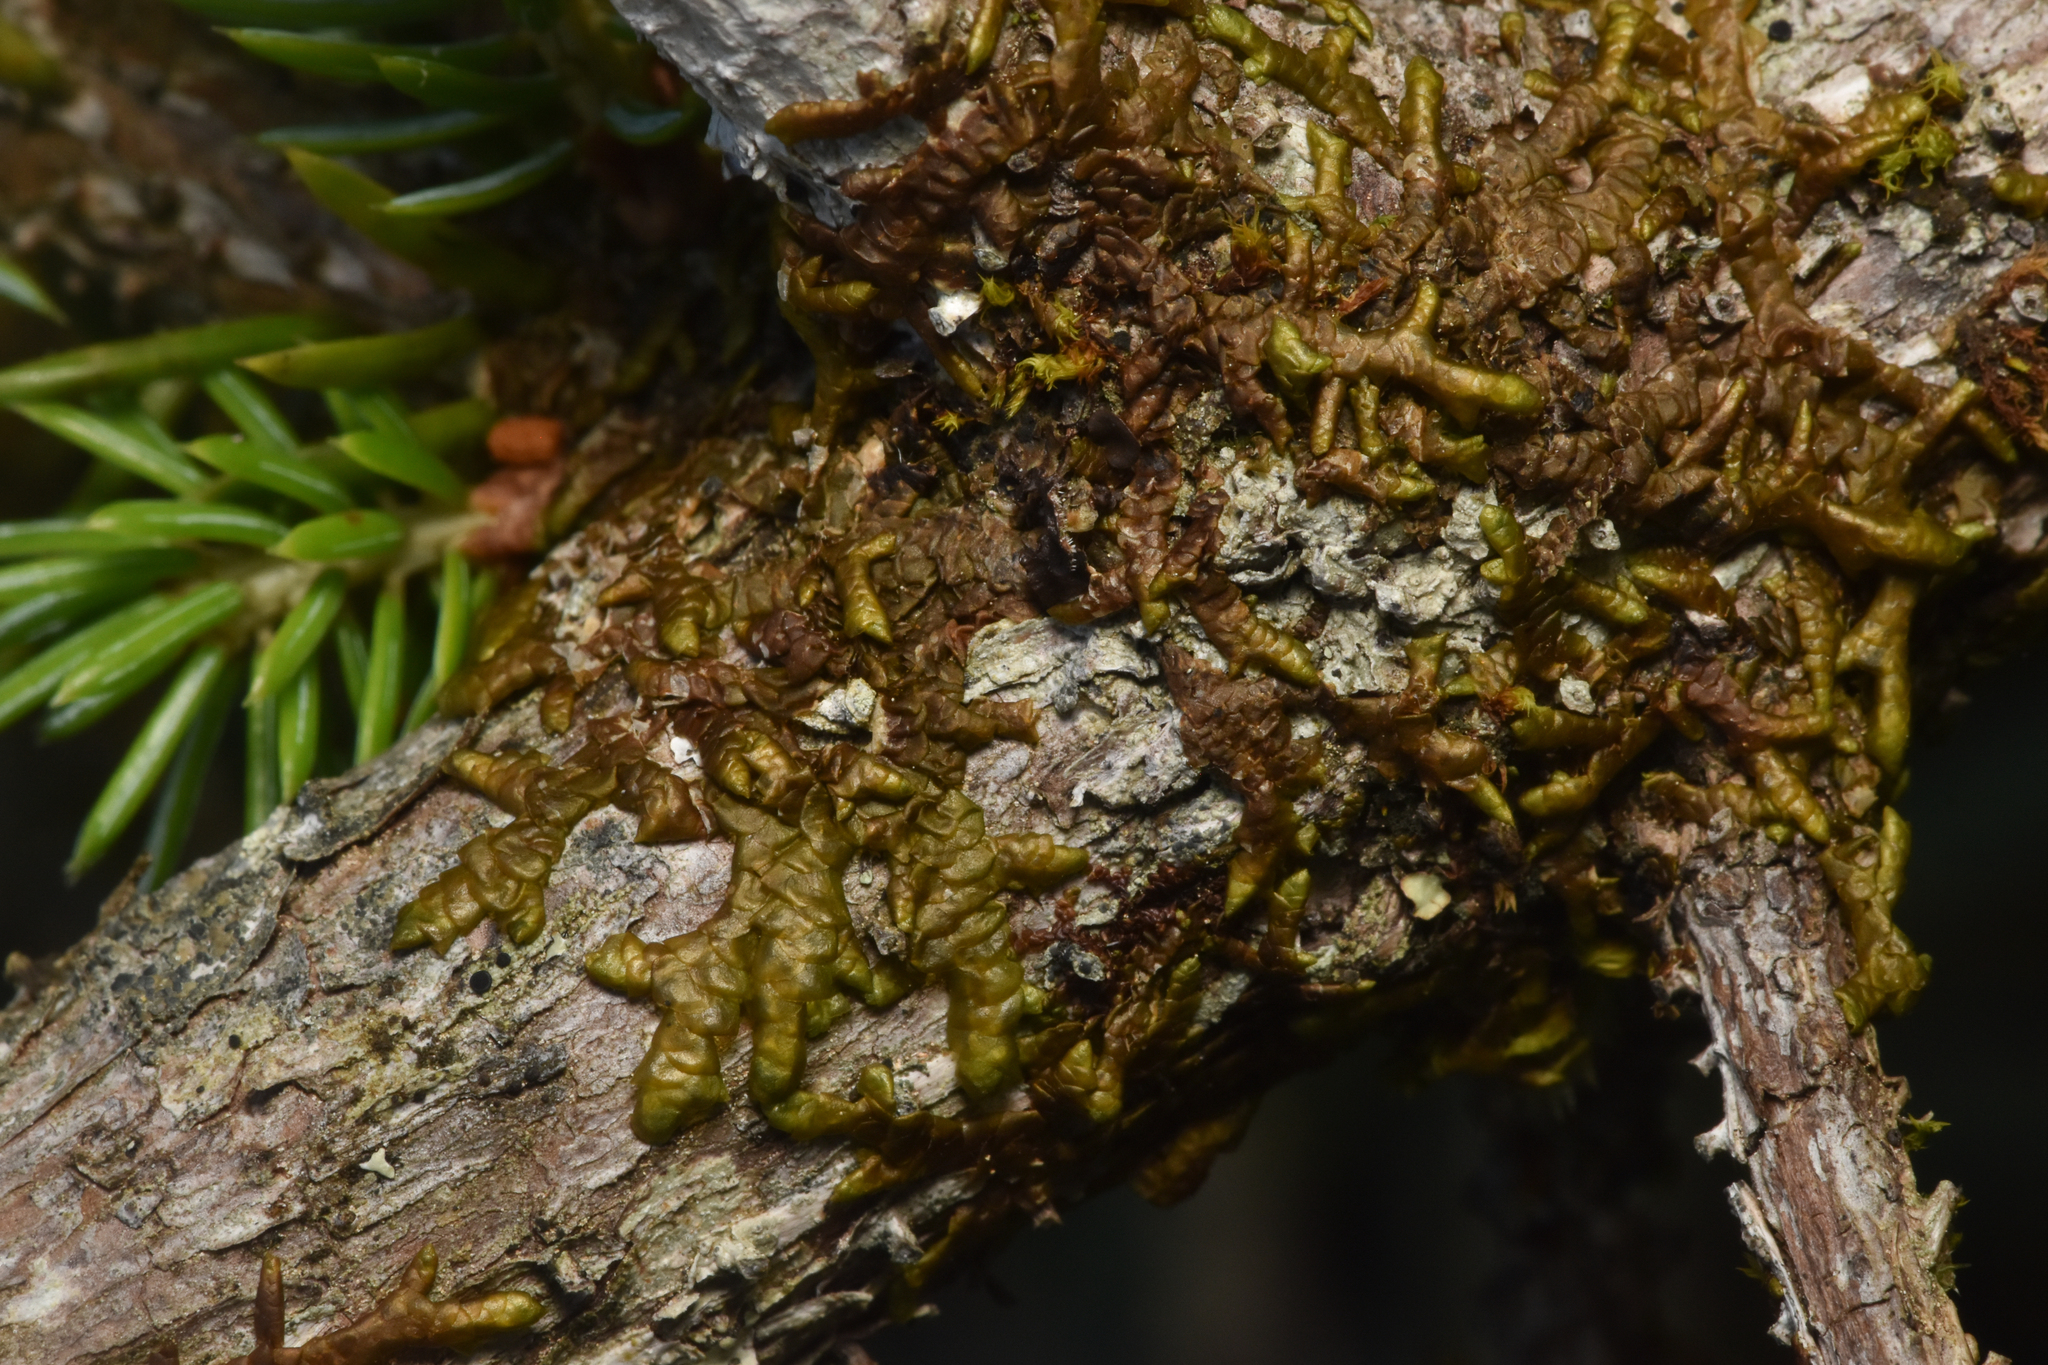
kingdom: Plantae
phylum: Marchantiophyta
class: Jungermanniopsida
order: Porellales
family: Porellaceae
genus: Porella
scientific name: Porella navicularis
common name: Tree ruffle liverwort
